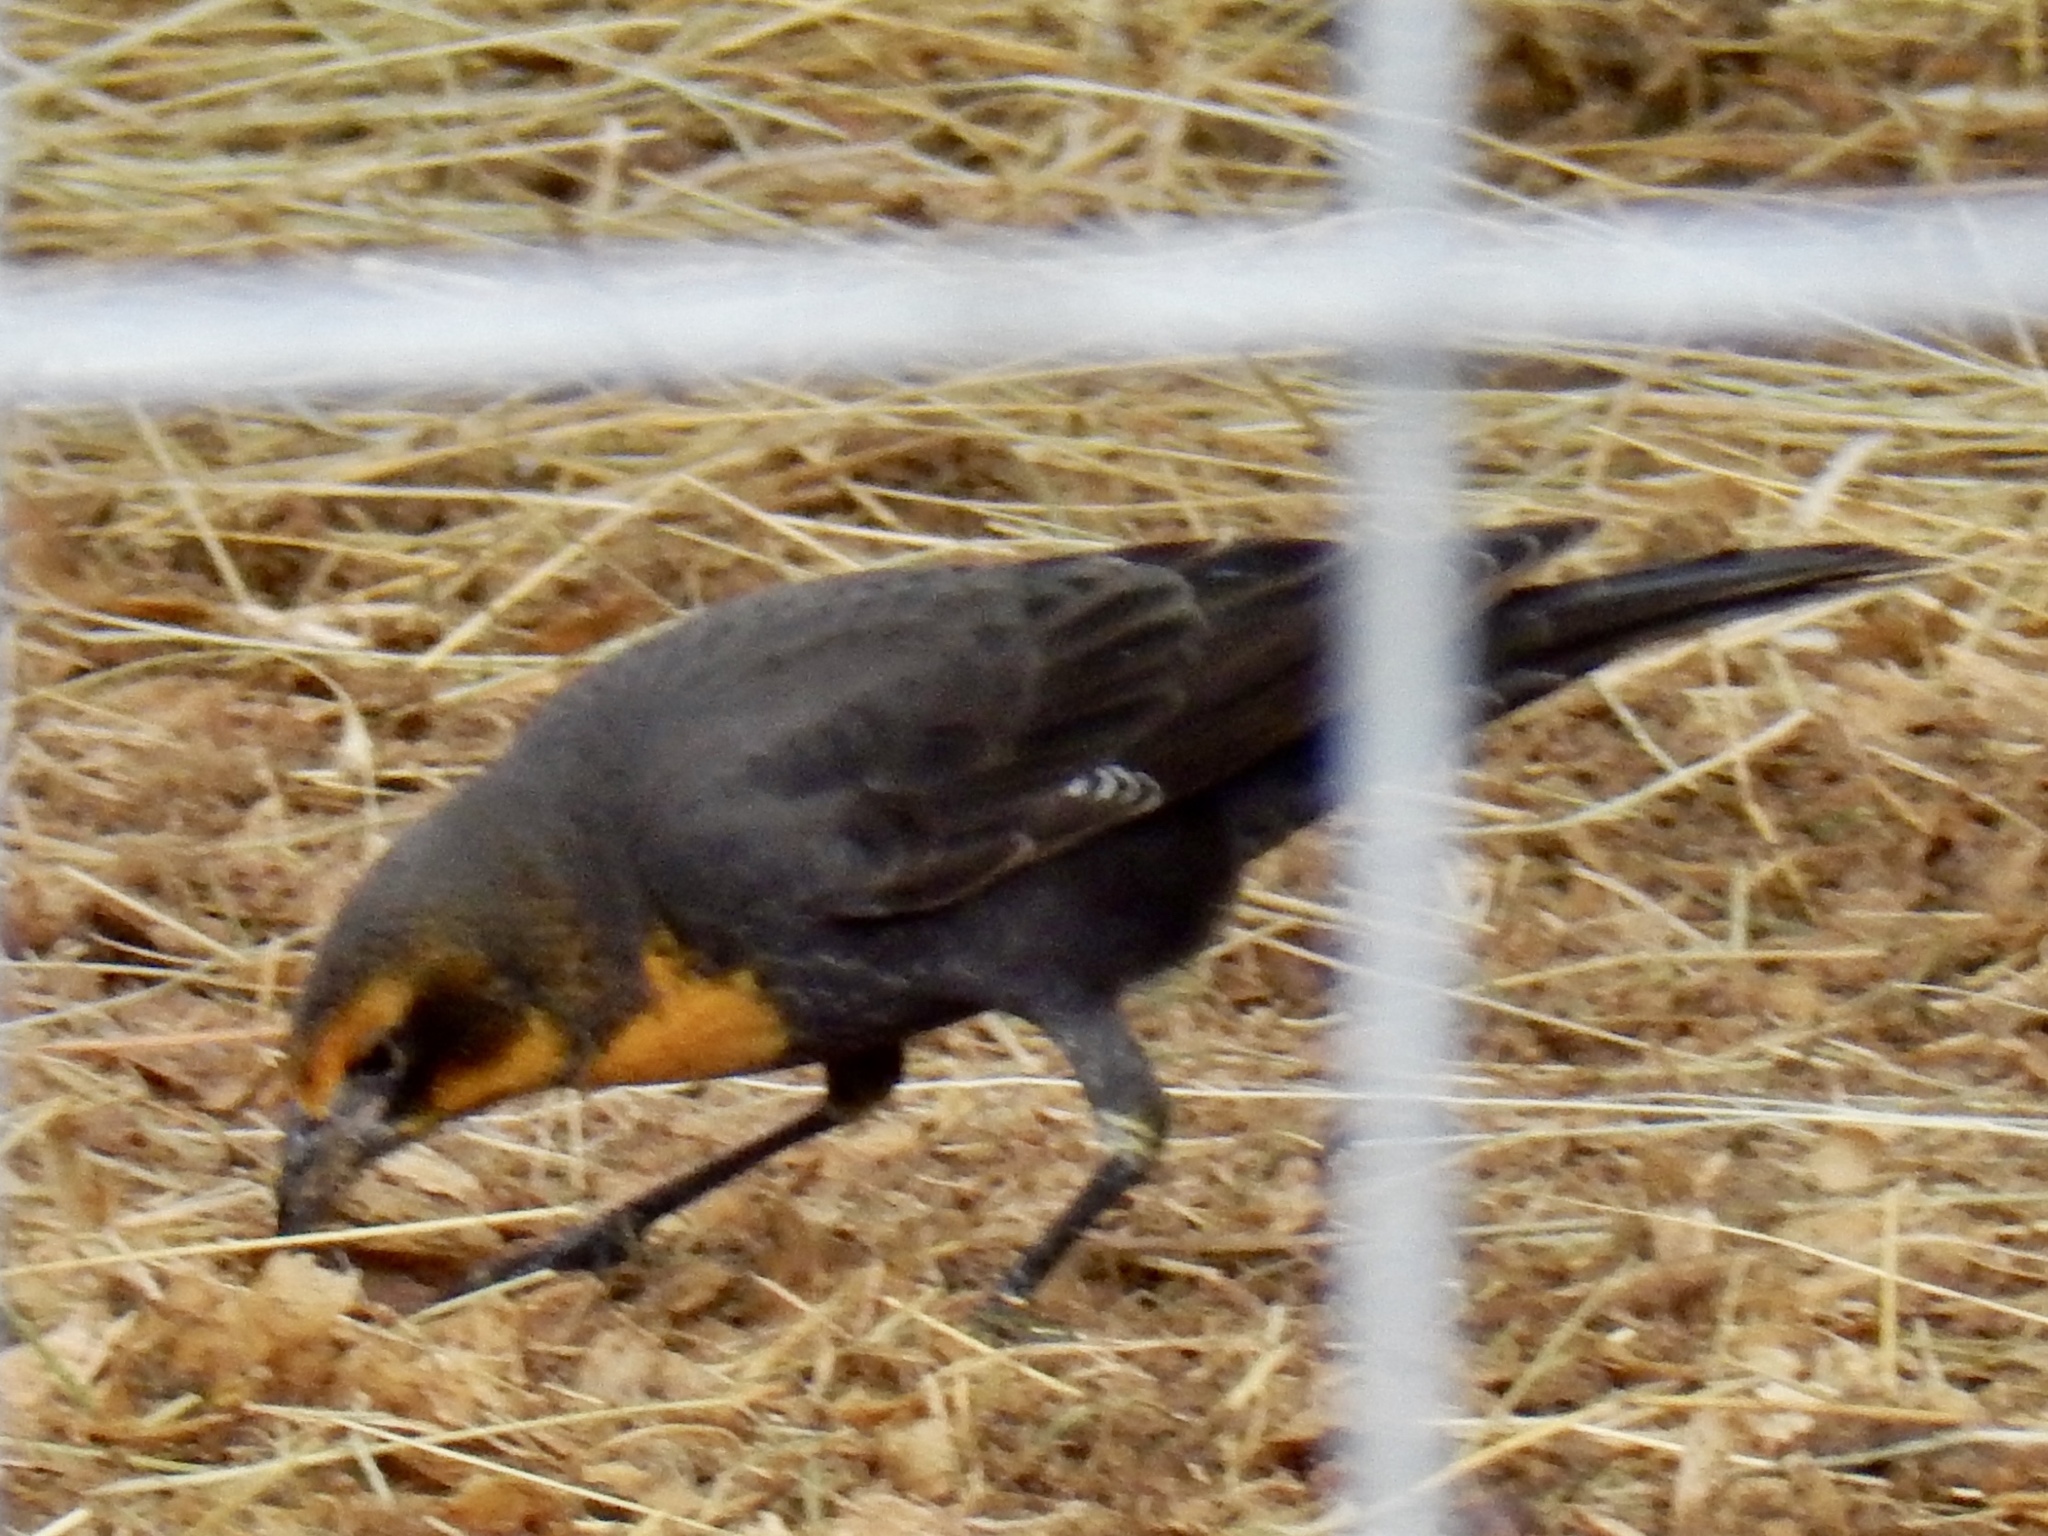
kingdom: Animalia
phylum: Chordata
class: Aves
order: Passeriformes
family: Icteridae
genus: Xanthocephalus
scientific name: Xanthocephalus xanthocephalus
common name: Yellow-headed blackbird
